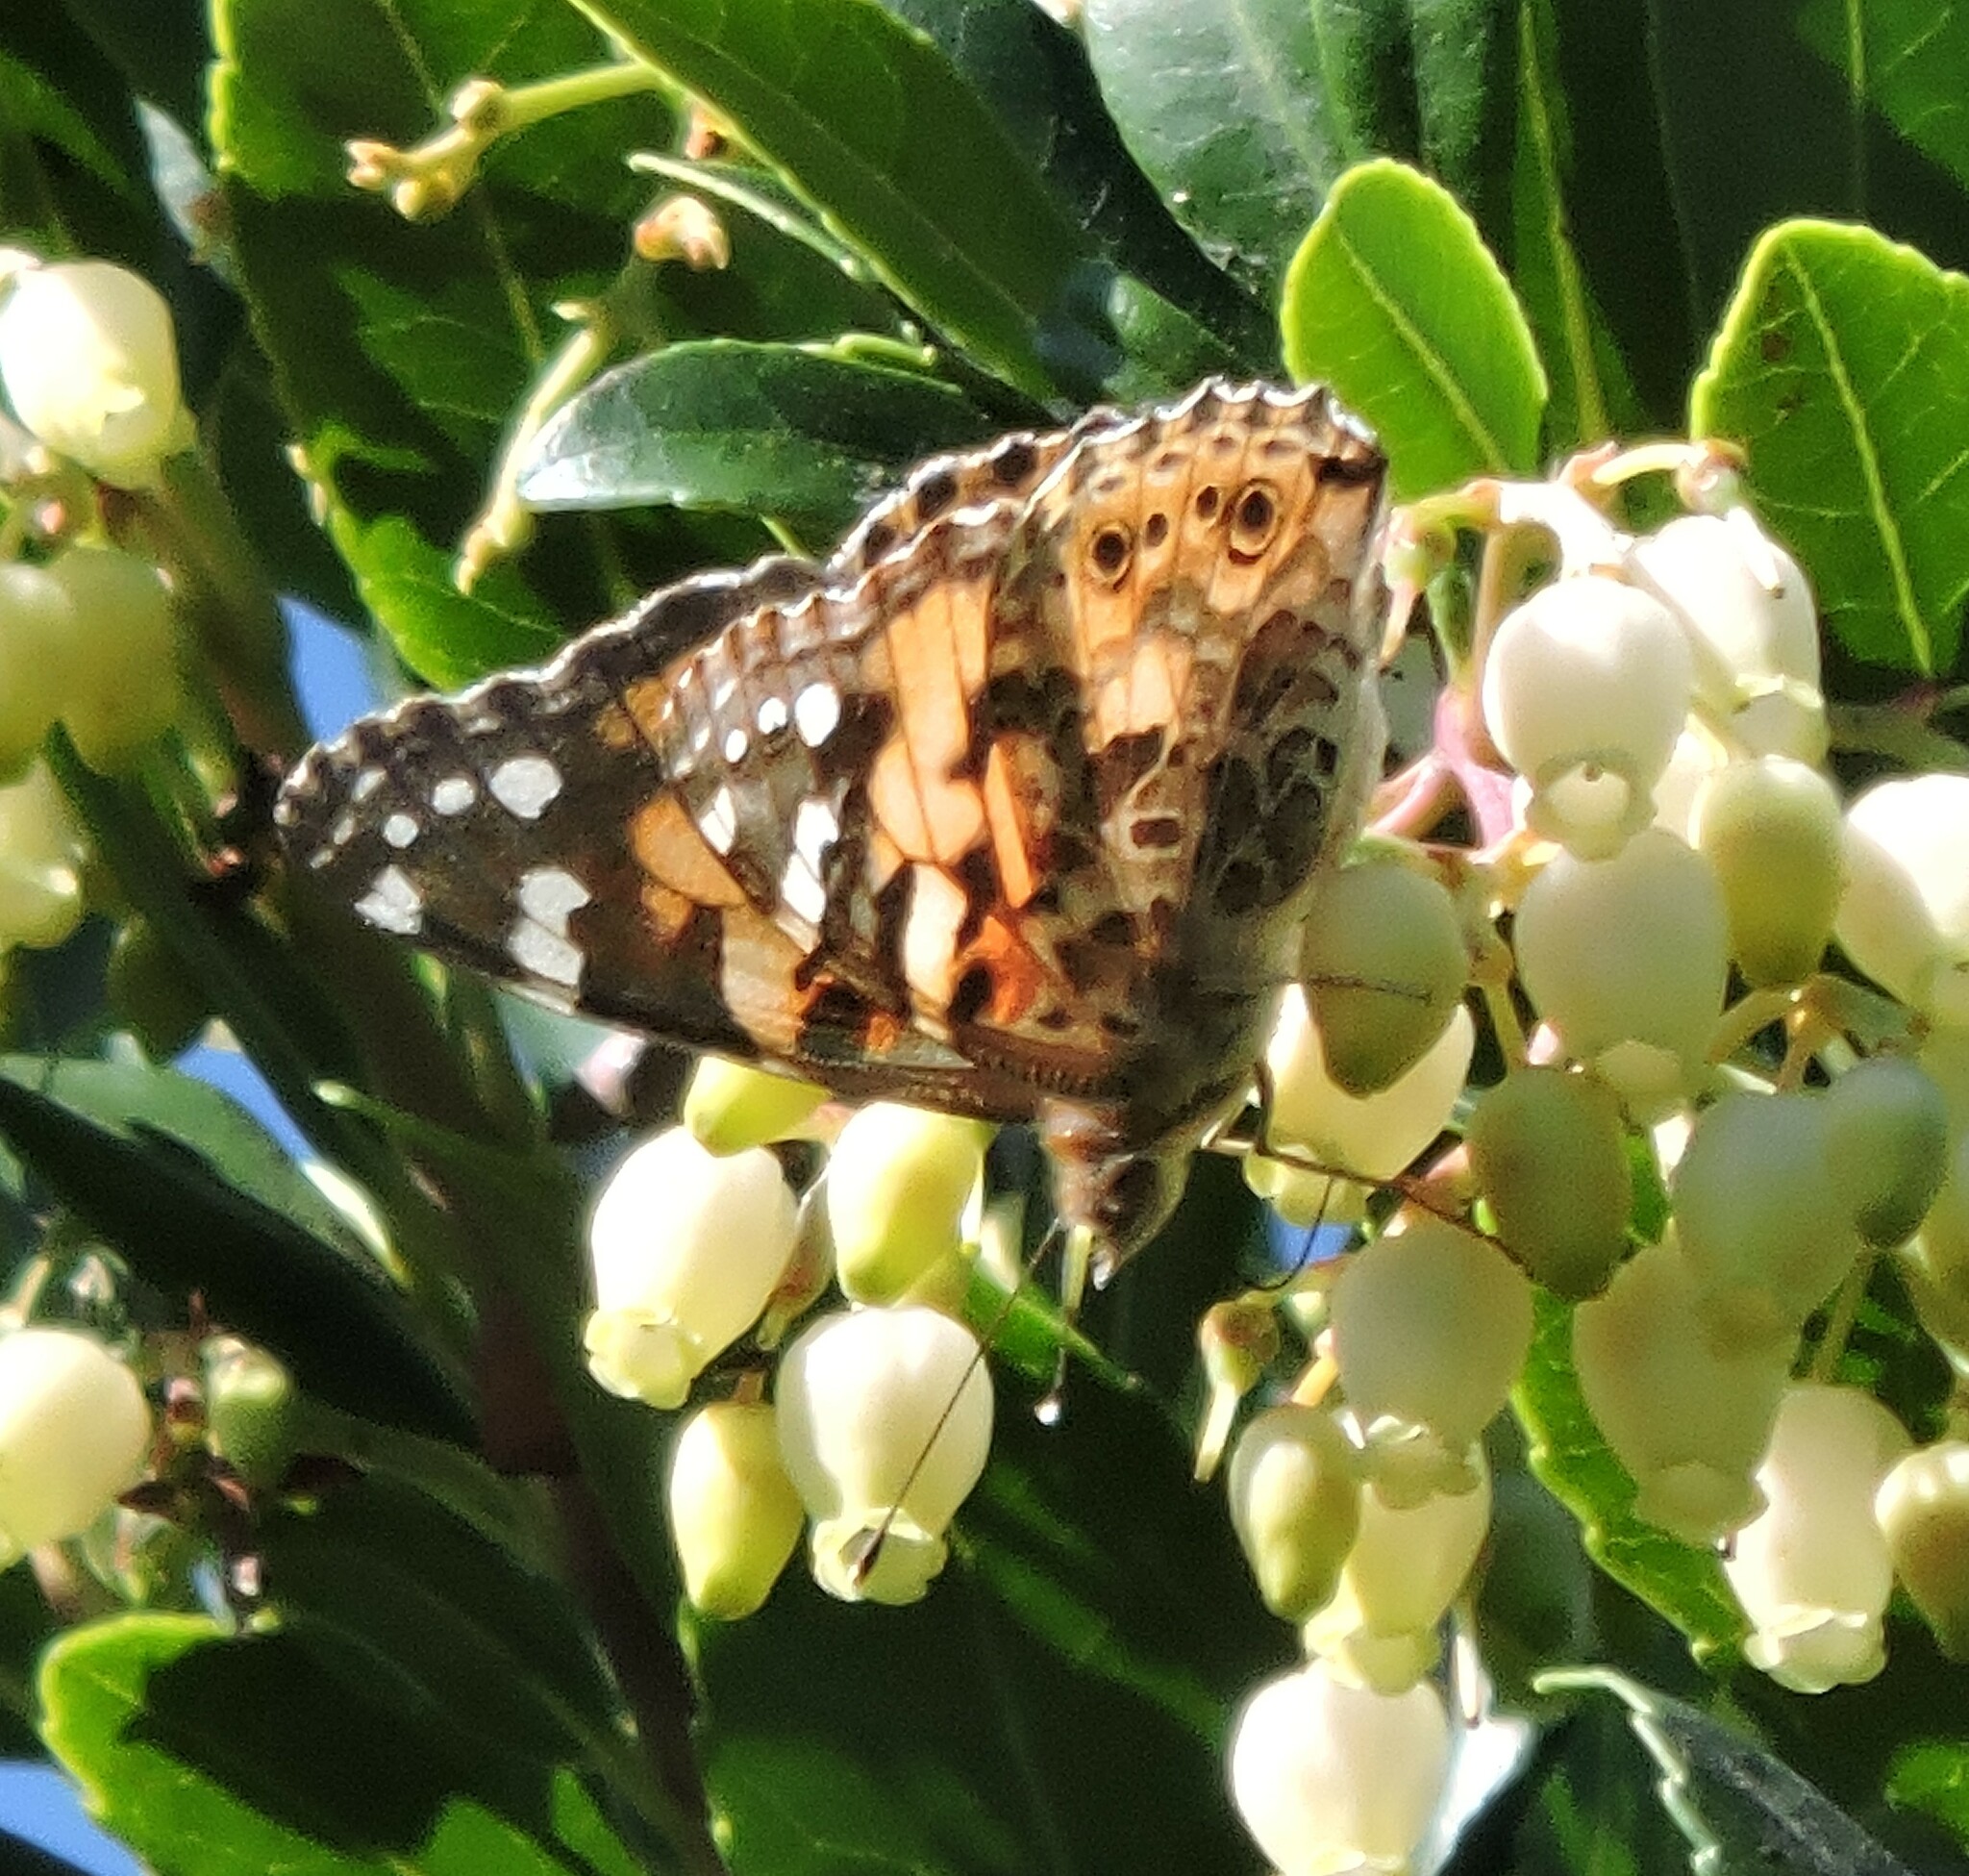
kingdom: Animalia
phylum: Arthropoda
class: Insecta
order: Lepidoptera
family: Nymphalidae
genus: Vanessa
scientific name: Vanessa cardui
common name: Painted lady
